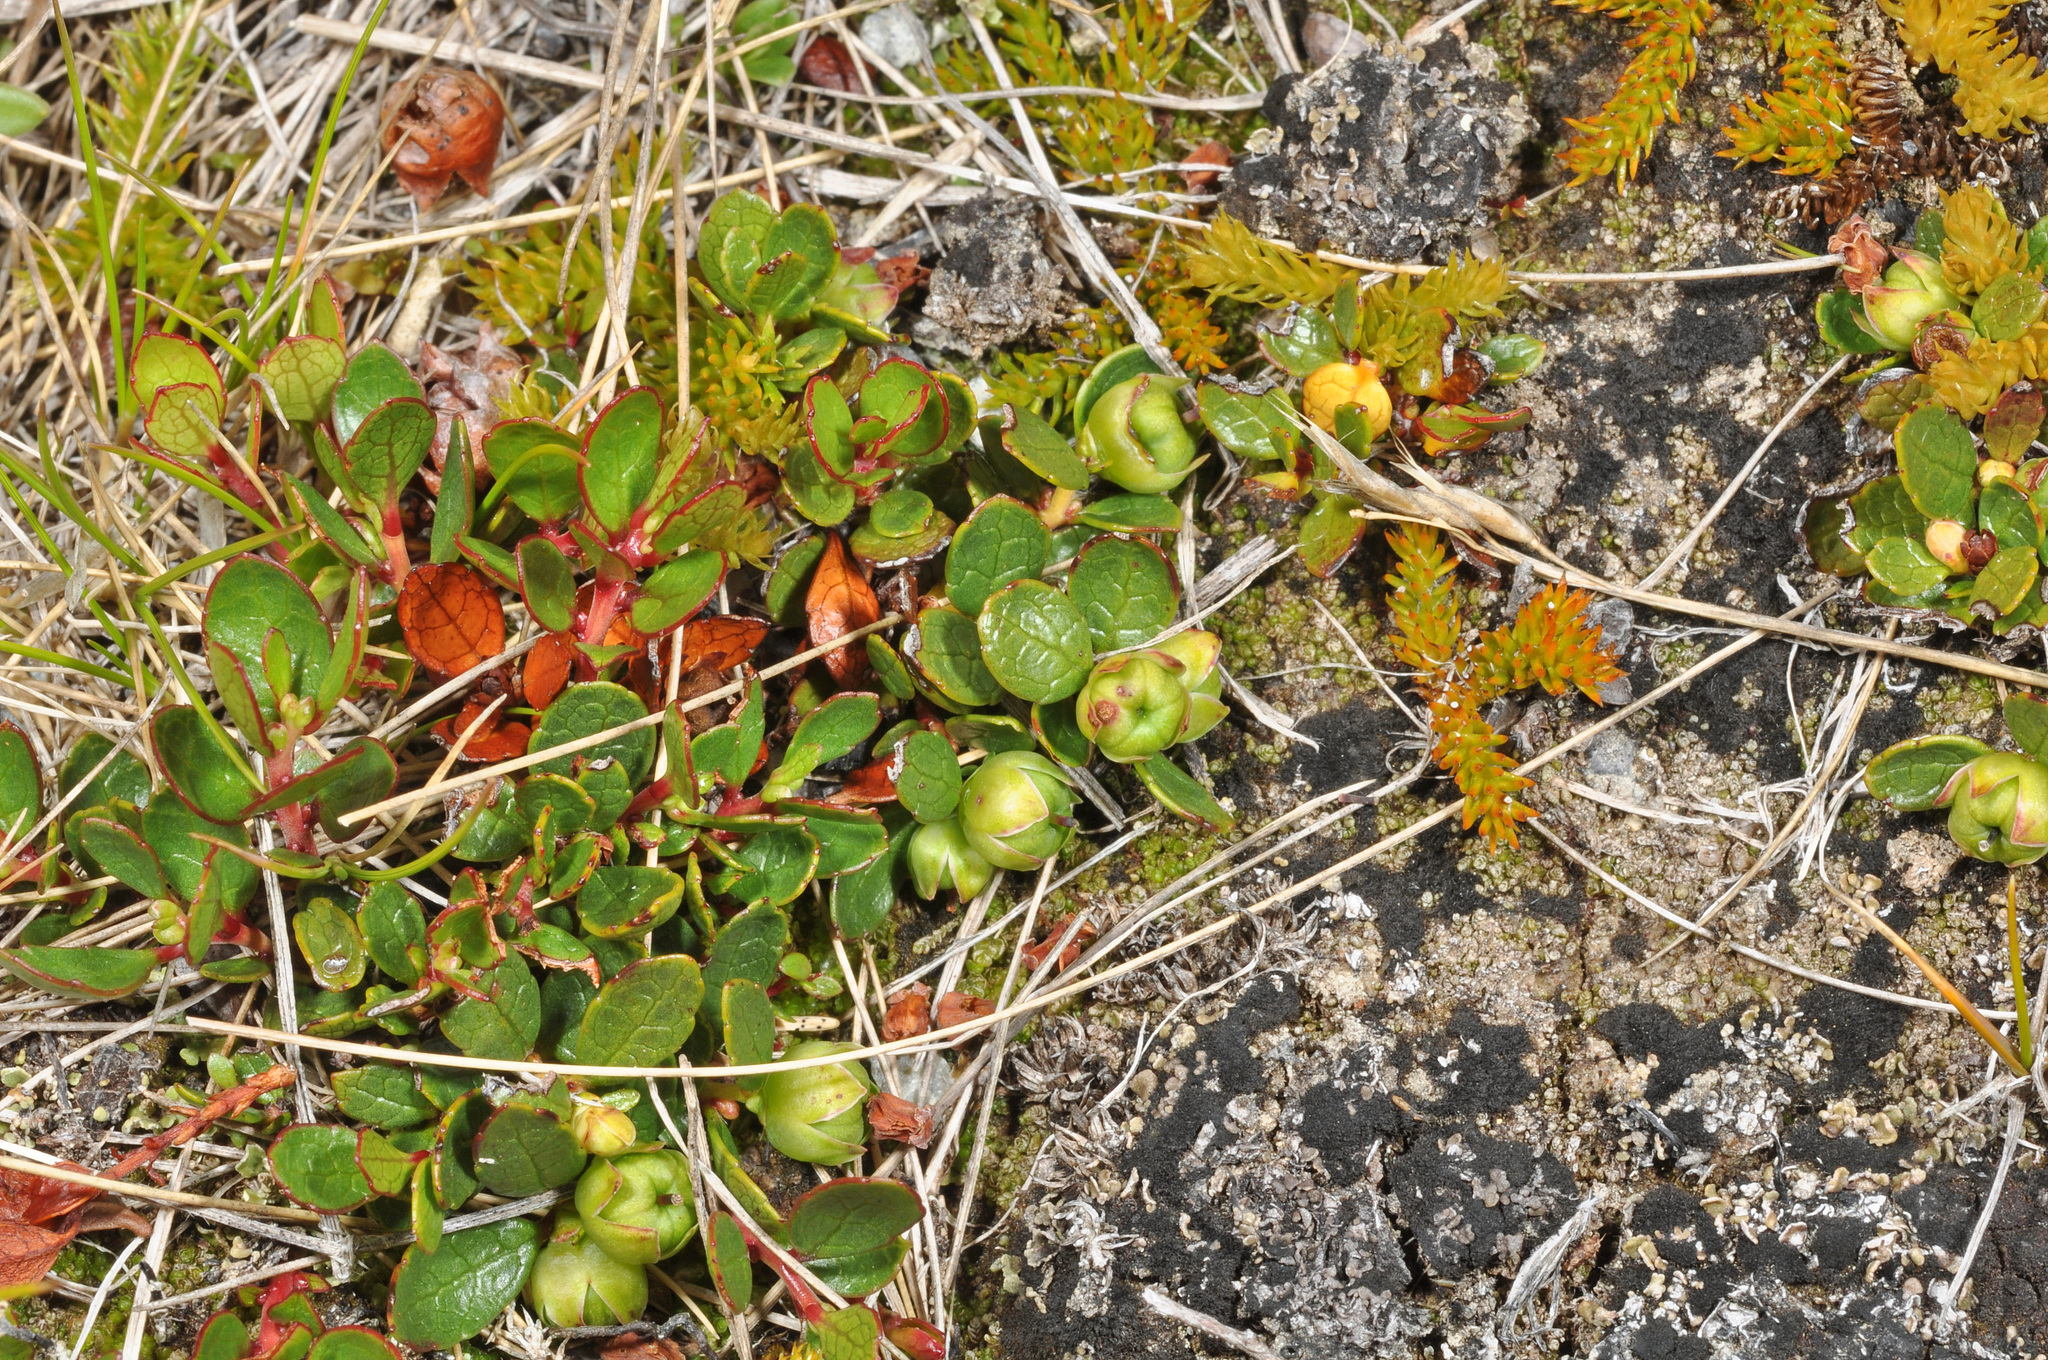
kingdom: Plantae
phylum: Tracheophyta
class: Magnoliopsida
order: Ericales
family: Ericaceae
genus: Gaultheria
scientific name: Gaultheria nubicola
